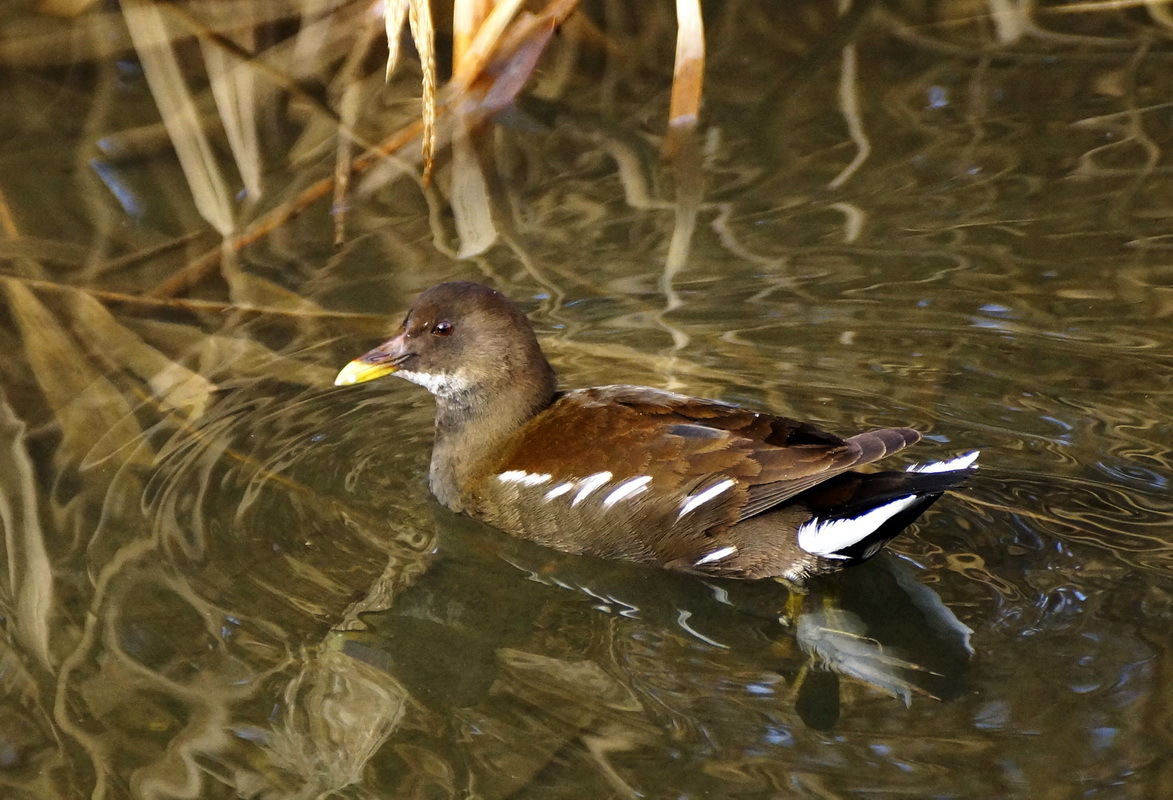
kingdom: Animalia
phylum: Chordata
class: Aves
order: Gruiformes
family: Rallidae
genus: Gallinula
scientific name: Gallinula chloropus
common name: Common moorhen
